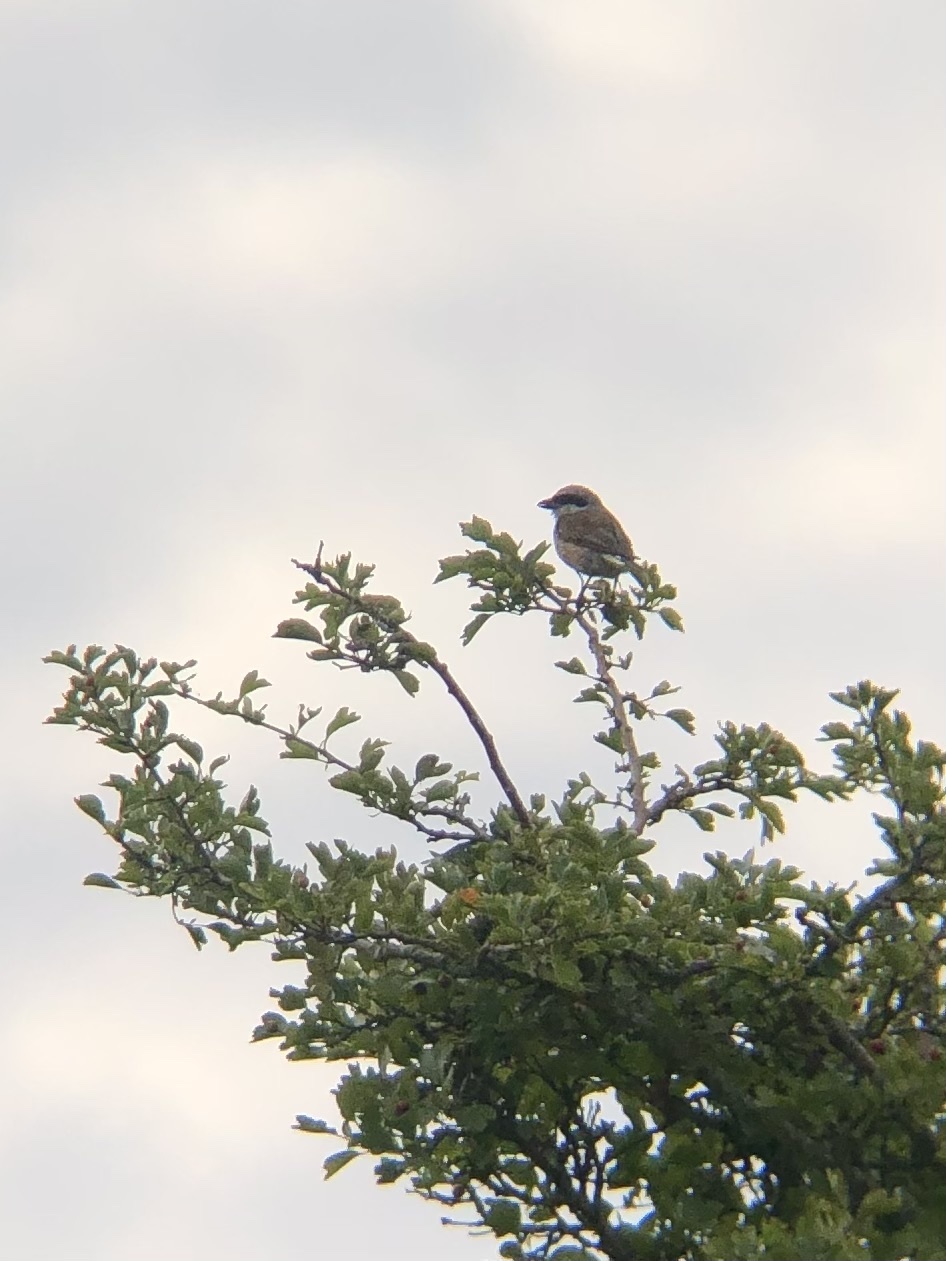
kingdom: Animalia
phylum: Chordata
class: Aves
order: Passeriformes
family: Laniidae
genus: Lanius
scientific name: Lanius collurio
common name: Red-backed shrike
